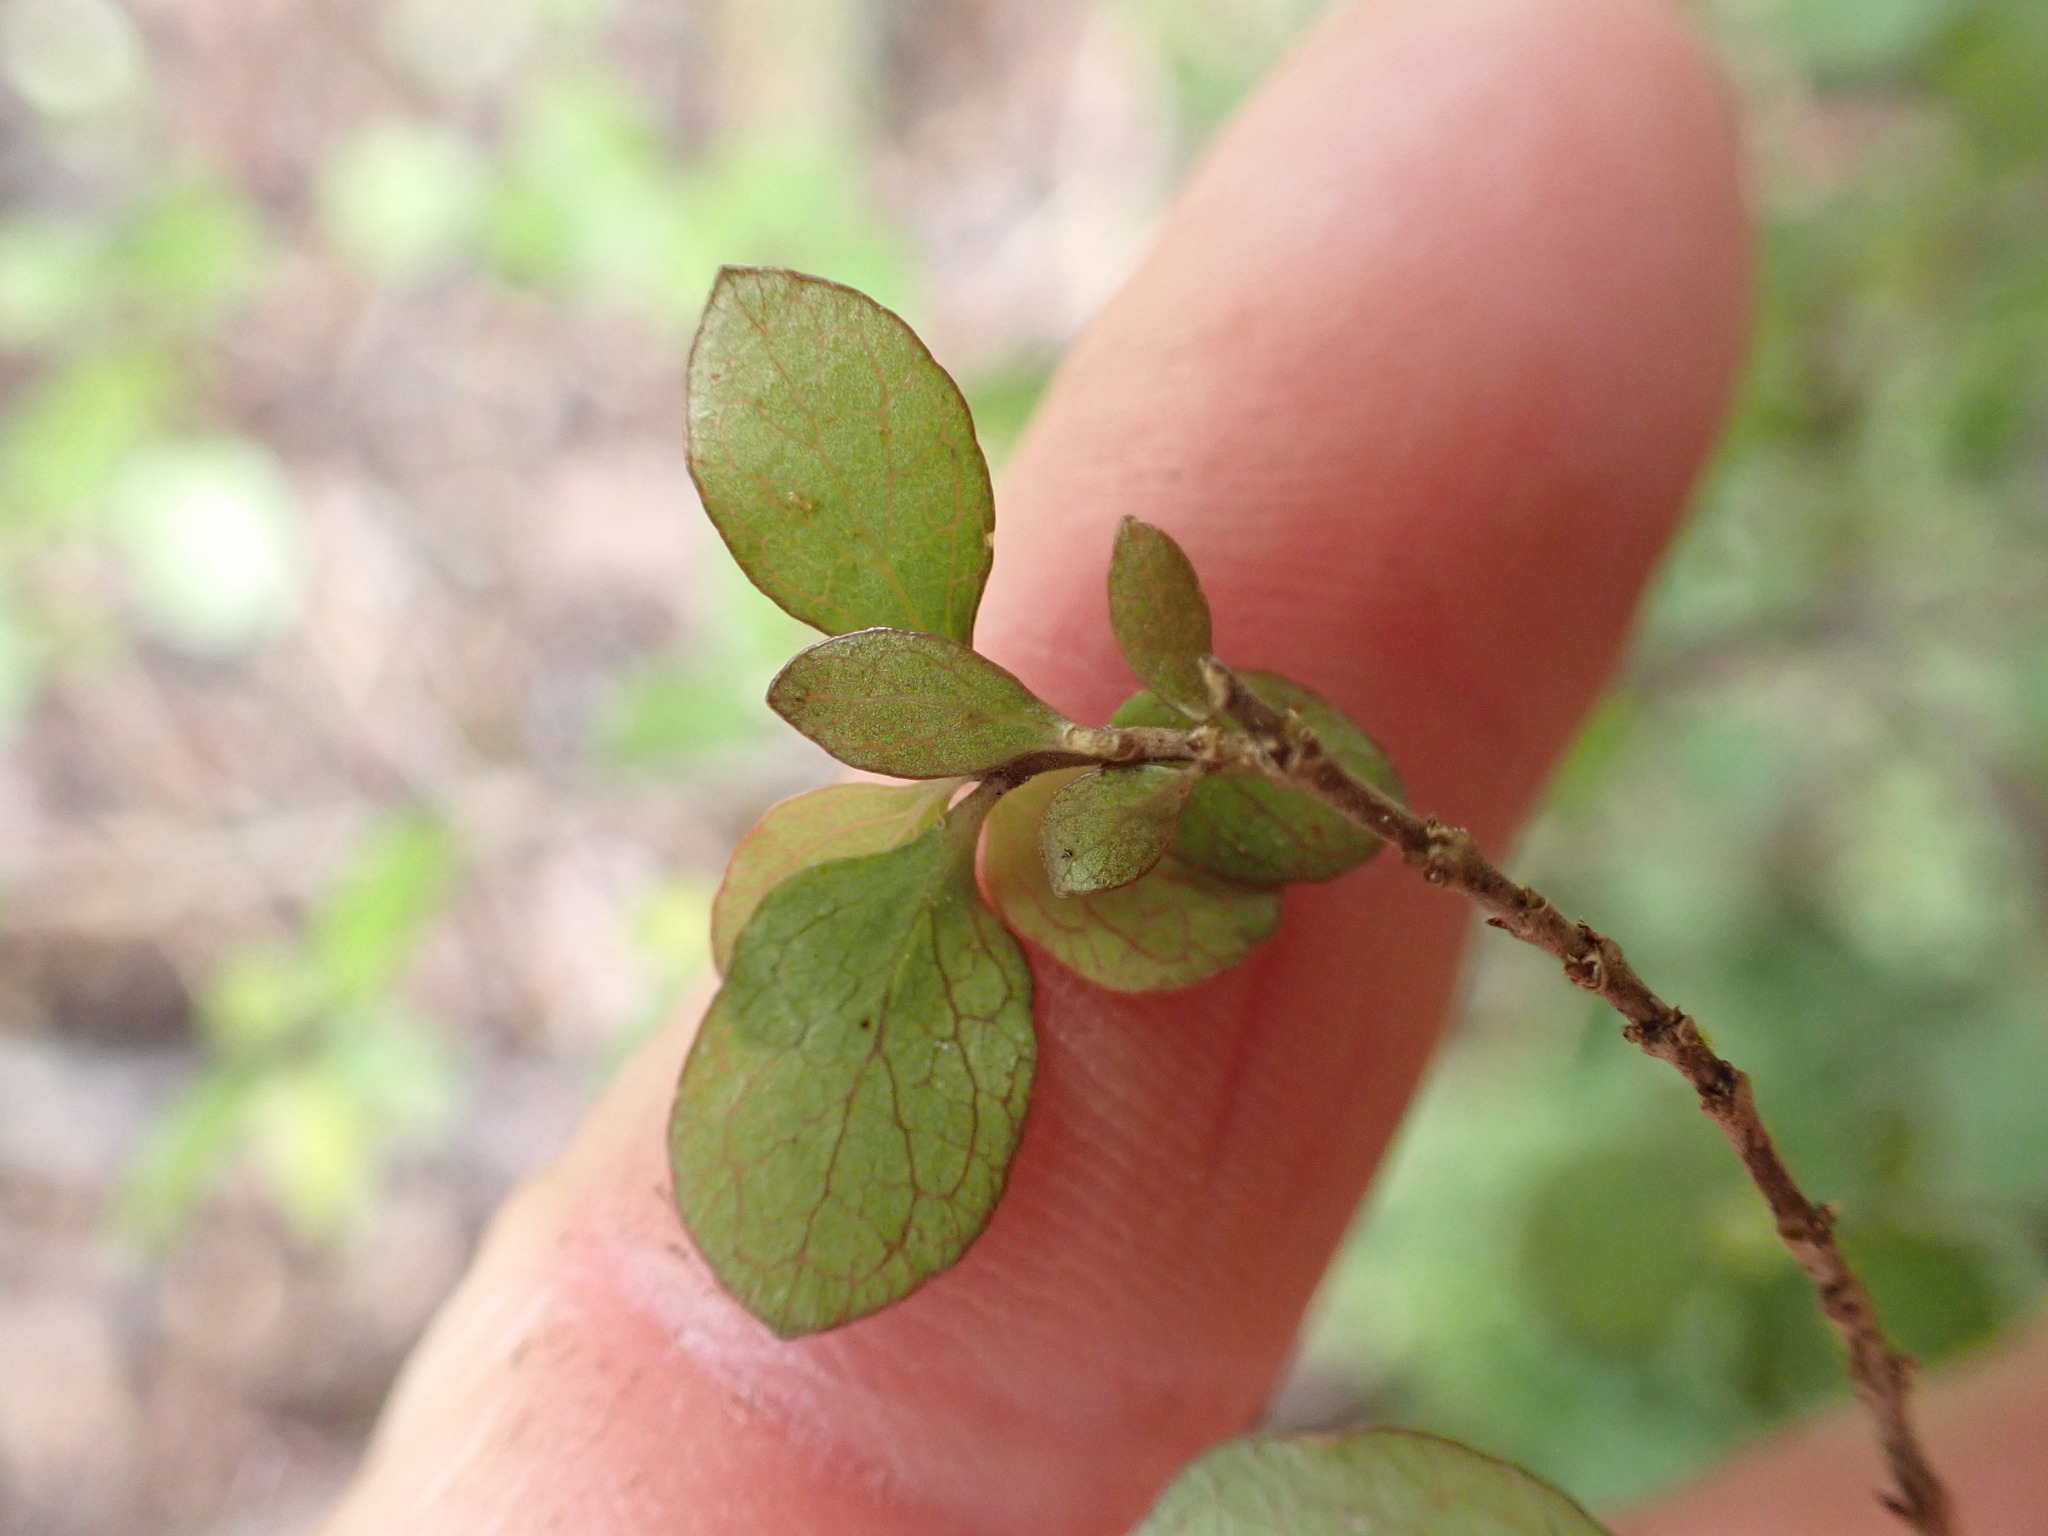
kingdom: Plantae
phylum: Tracheophyta
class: Magnoliopsida
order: Gentianales
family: Rubiaceae
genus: Coprosma
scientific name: Coprosma rhamnoides
